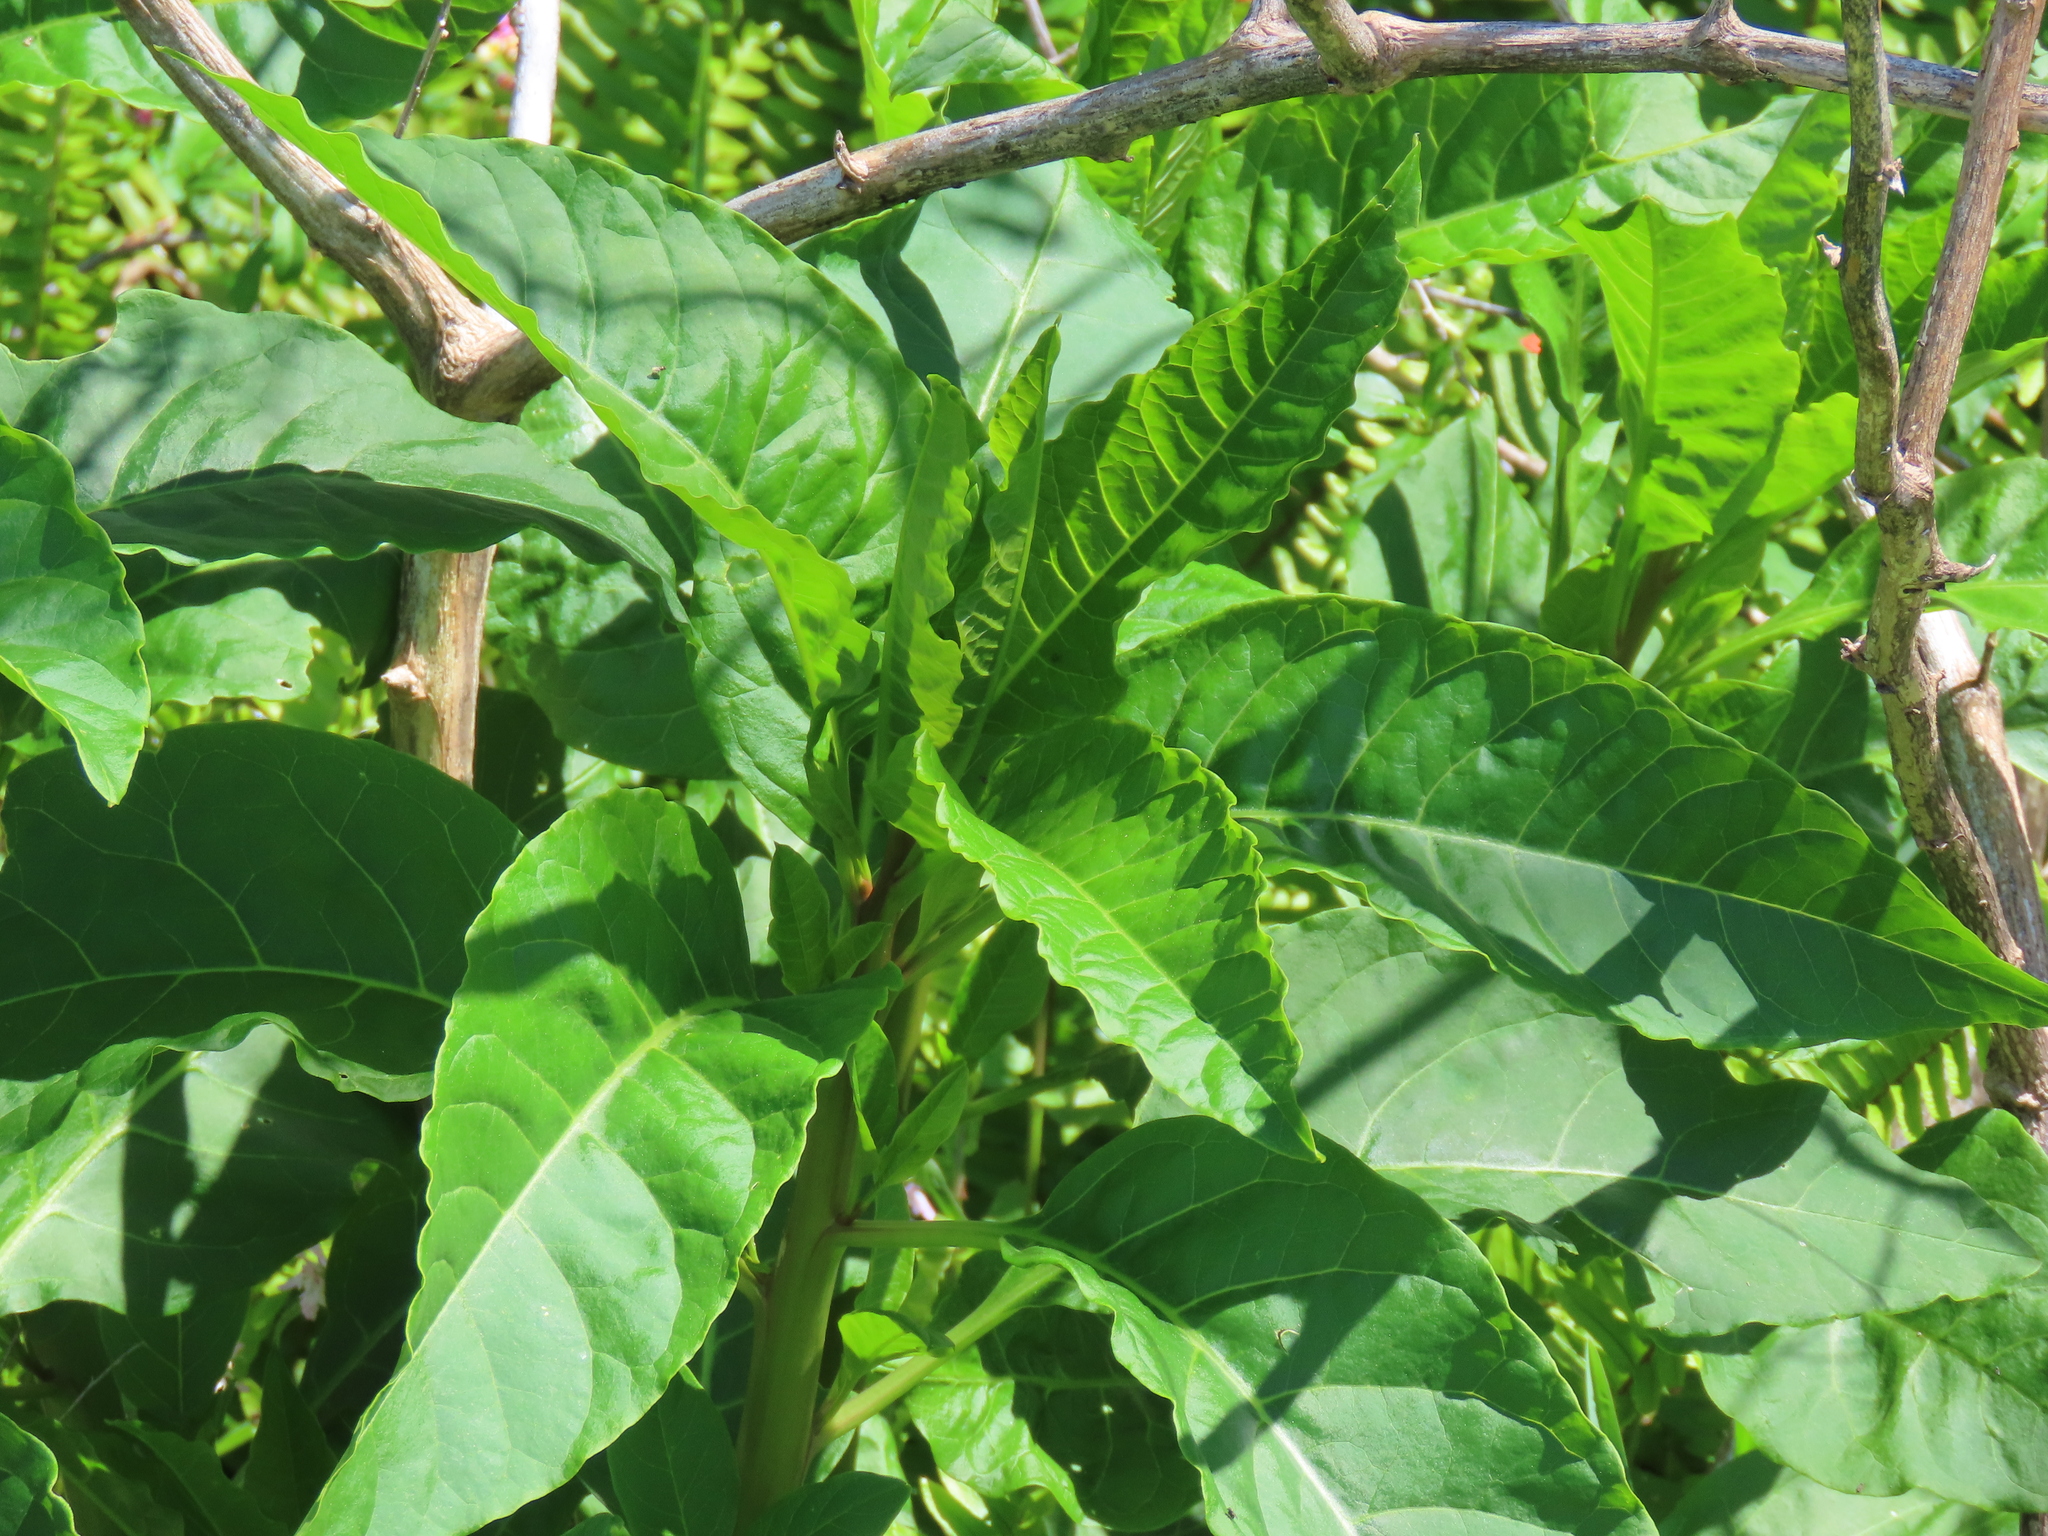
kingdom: Plantae
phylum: Tracheophyta
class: Magnoliopsida
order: Caryophyllales
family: Phytolaccaceae
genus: Phytolacca
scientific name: Phytolacca americana
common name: American pokeweed
